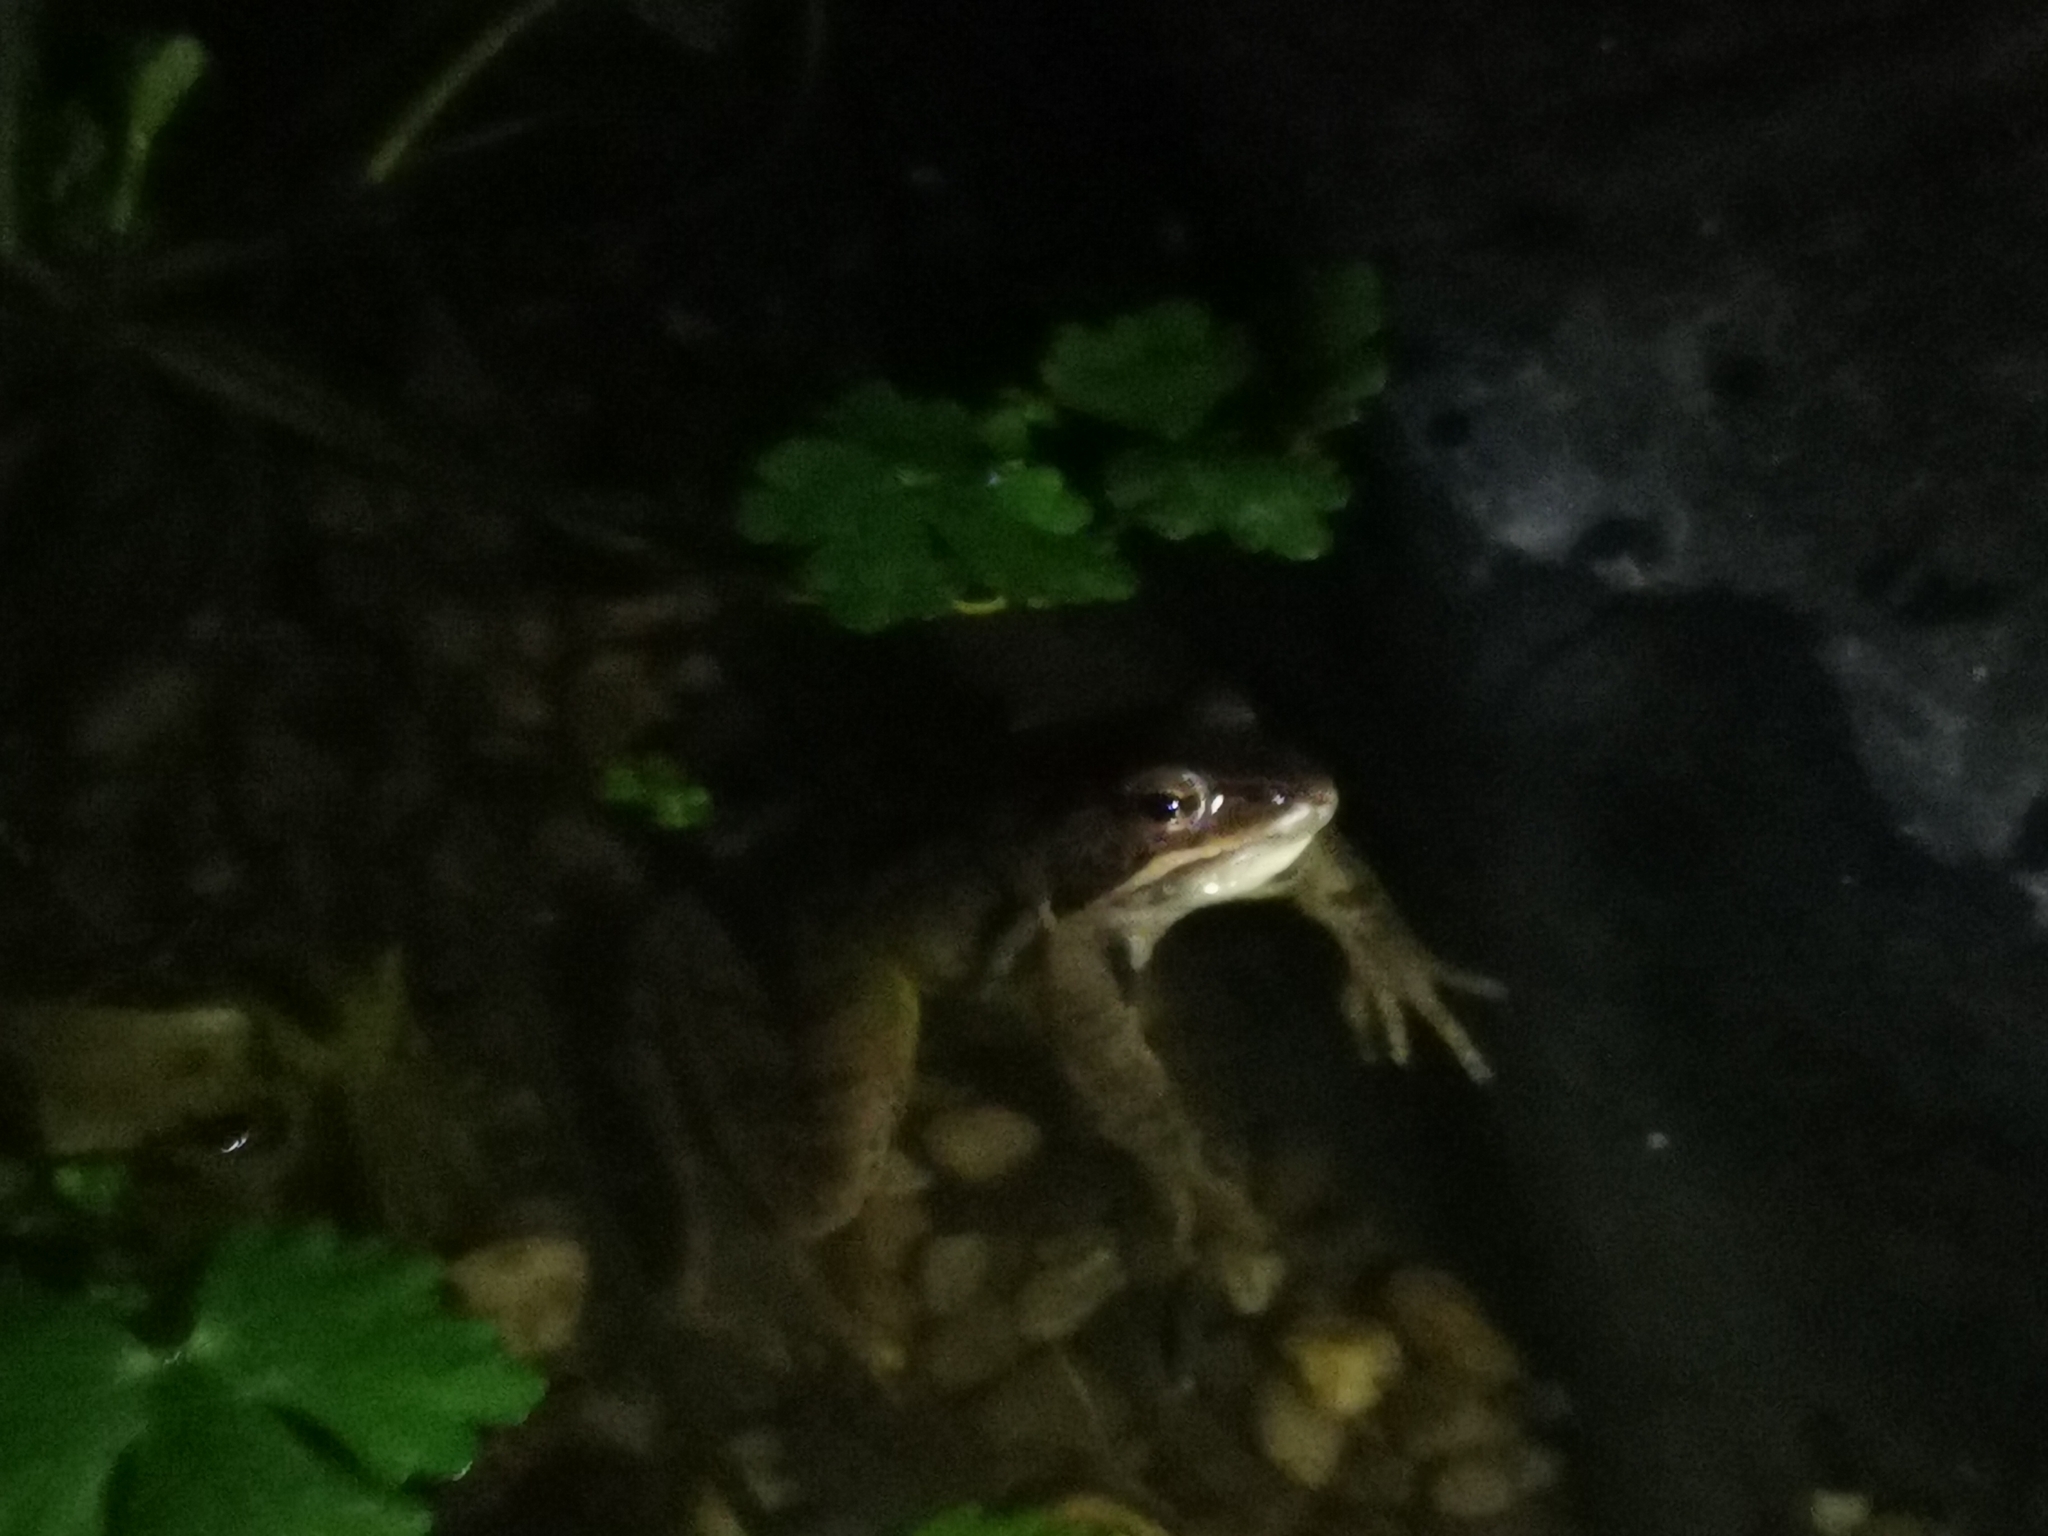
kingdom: Animalia
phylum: Chordata
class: Amphibia
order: Anura
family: Ranidae
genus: Rana
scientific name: Rana temporaria
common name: Common frog
